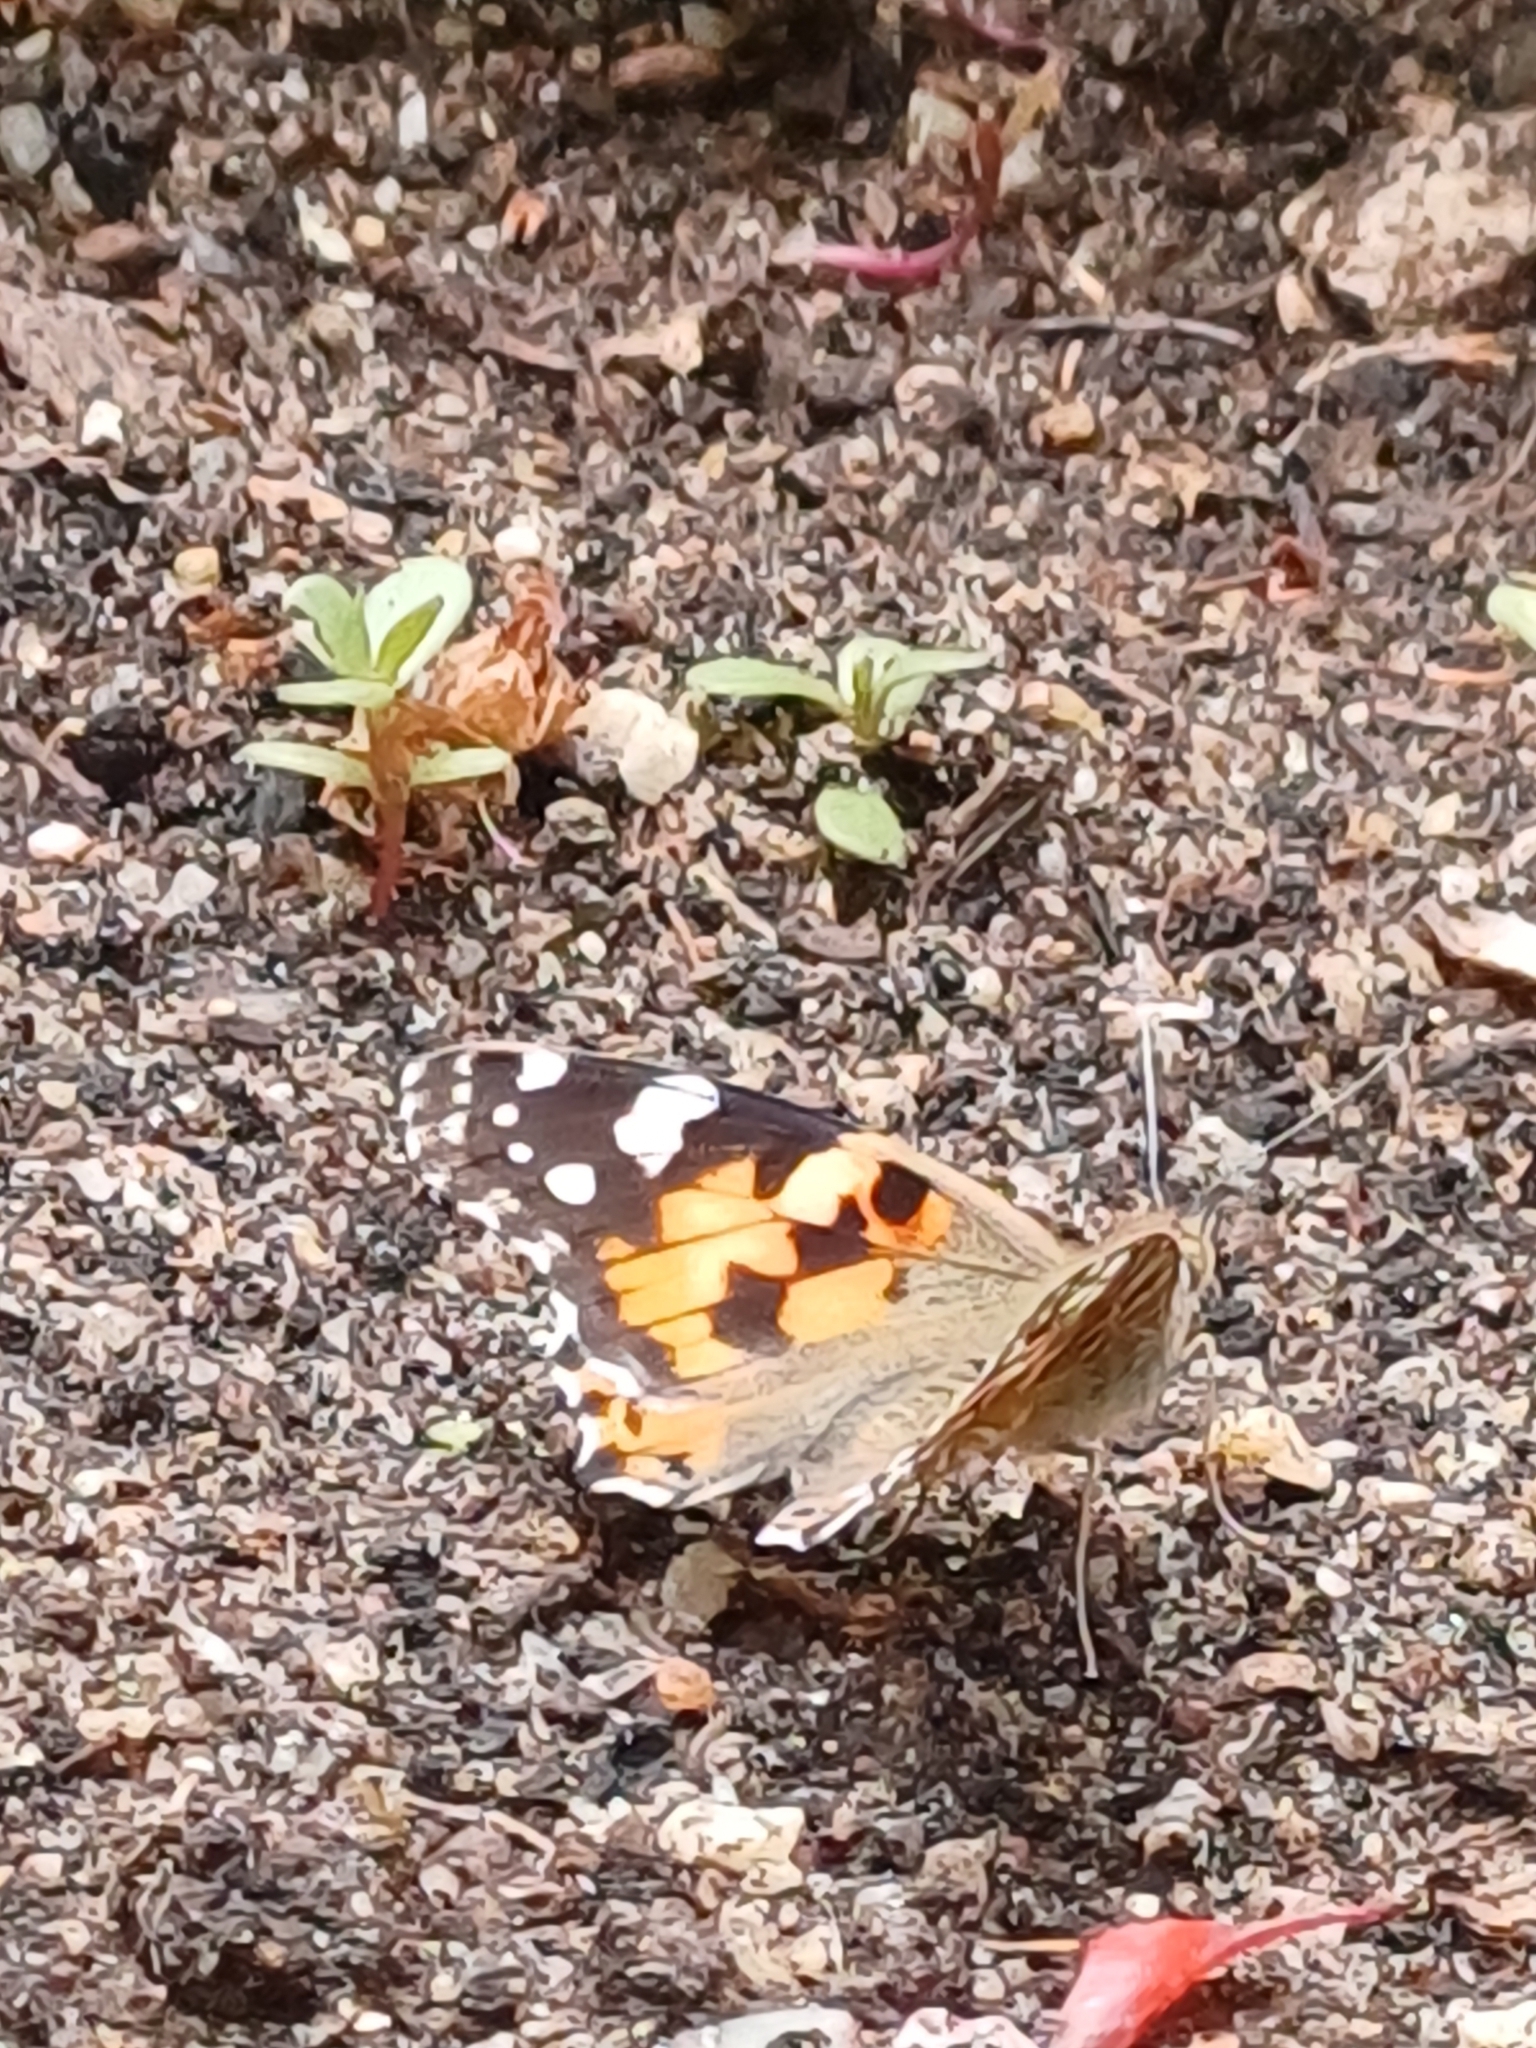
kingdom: Animalia
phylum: Arthropoda
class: Insecta
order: Lepidoptera
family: Nymphalidae
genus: Vanessa
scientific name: Vanessa cardui
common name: Painted lady
